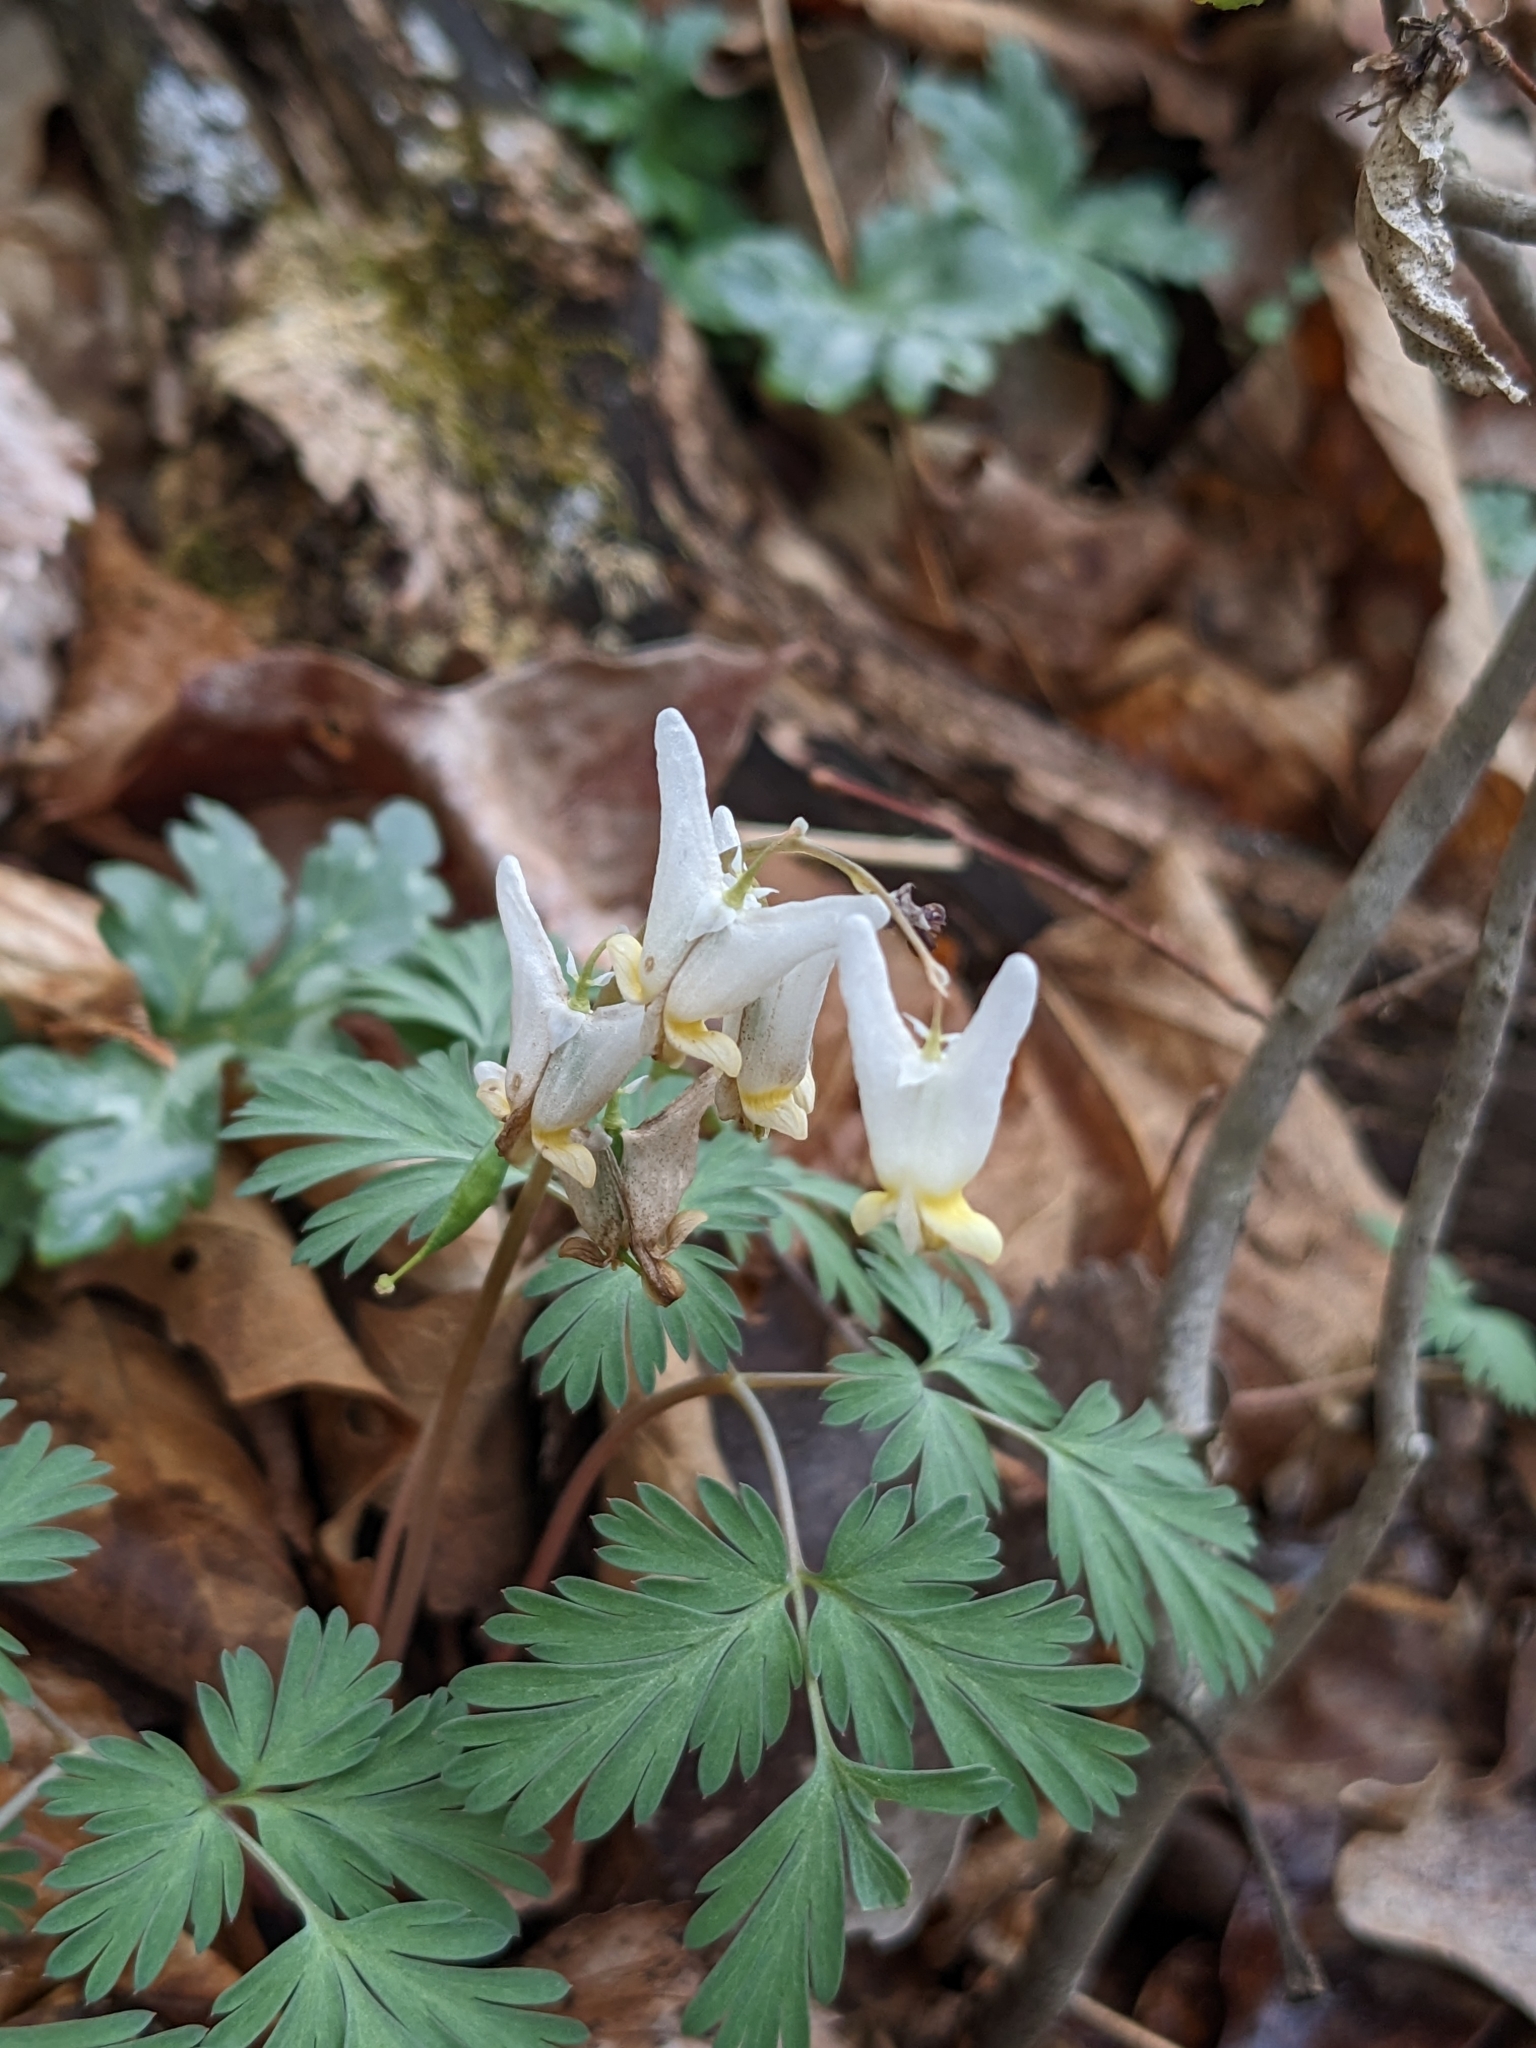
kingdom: Plantae
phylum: Tracheophyta
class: Magnoliopsida
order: Ranunculales
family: Papaveraceae
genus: Dicentra
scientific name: Dicentra cucullaria
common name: Dutchman's breeches
